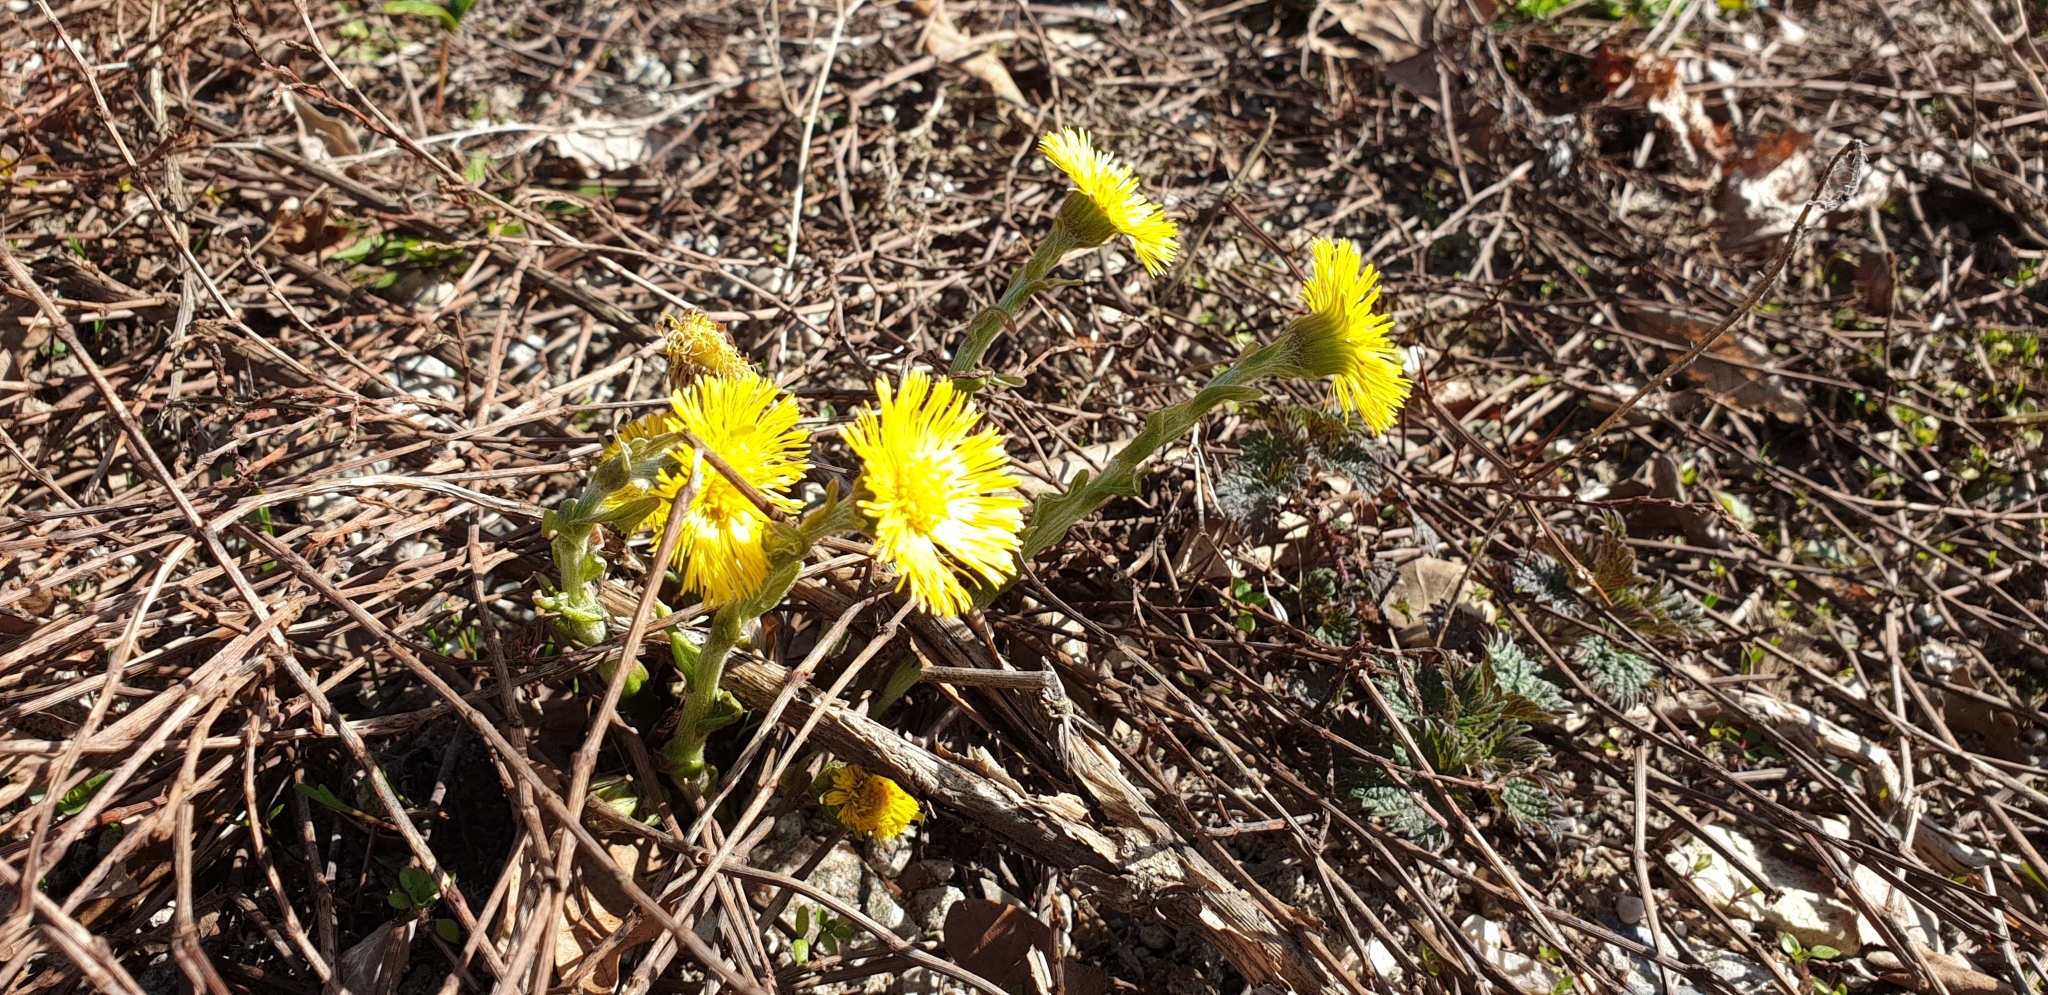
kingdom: Plantae
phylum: Tracheophyta
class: Magnoliopsida
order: Asterales
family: Asteraceae
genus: Tussilago
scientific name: Tussilago farfara
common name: Coltsfoot
